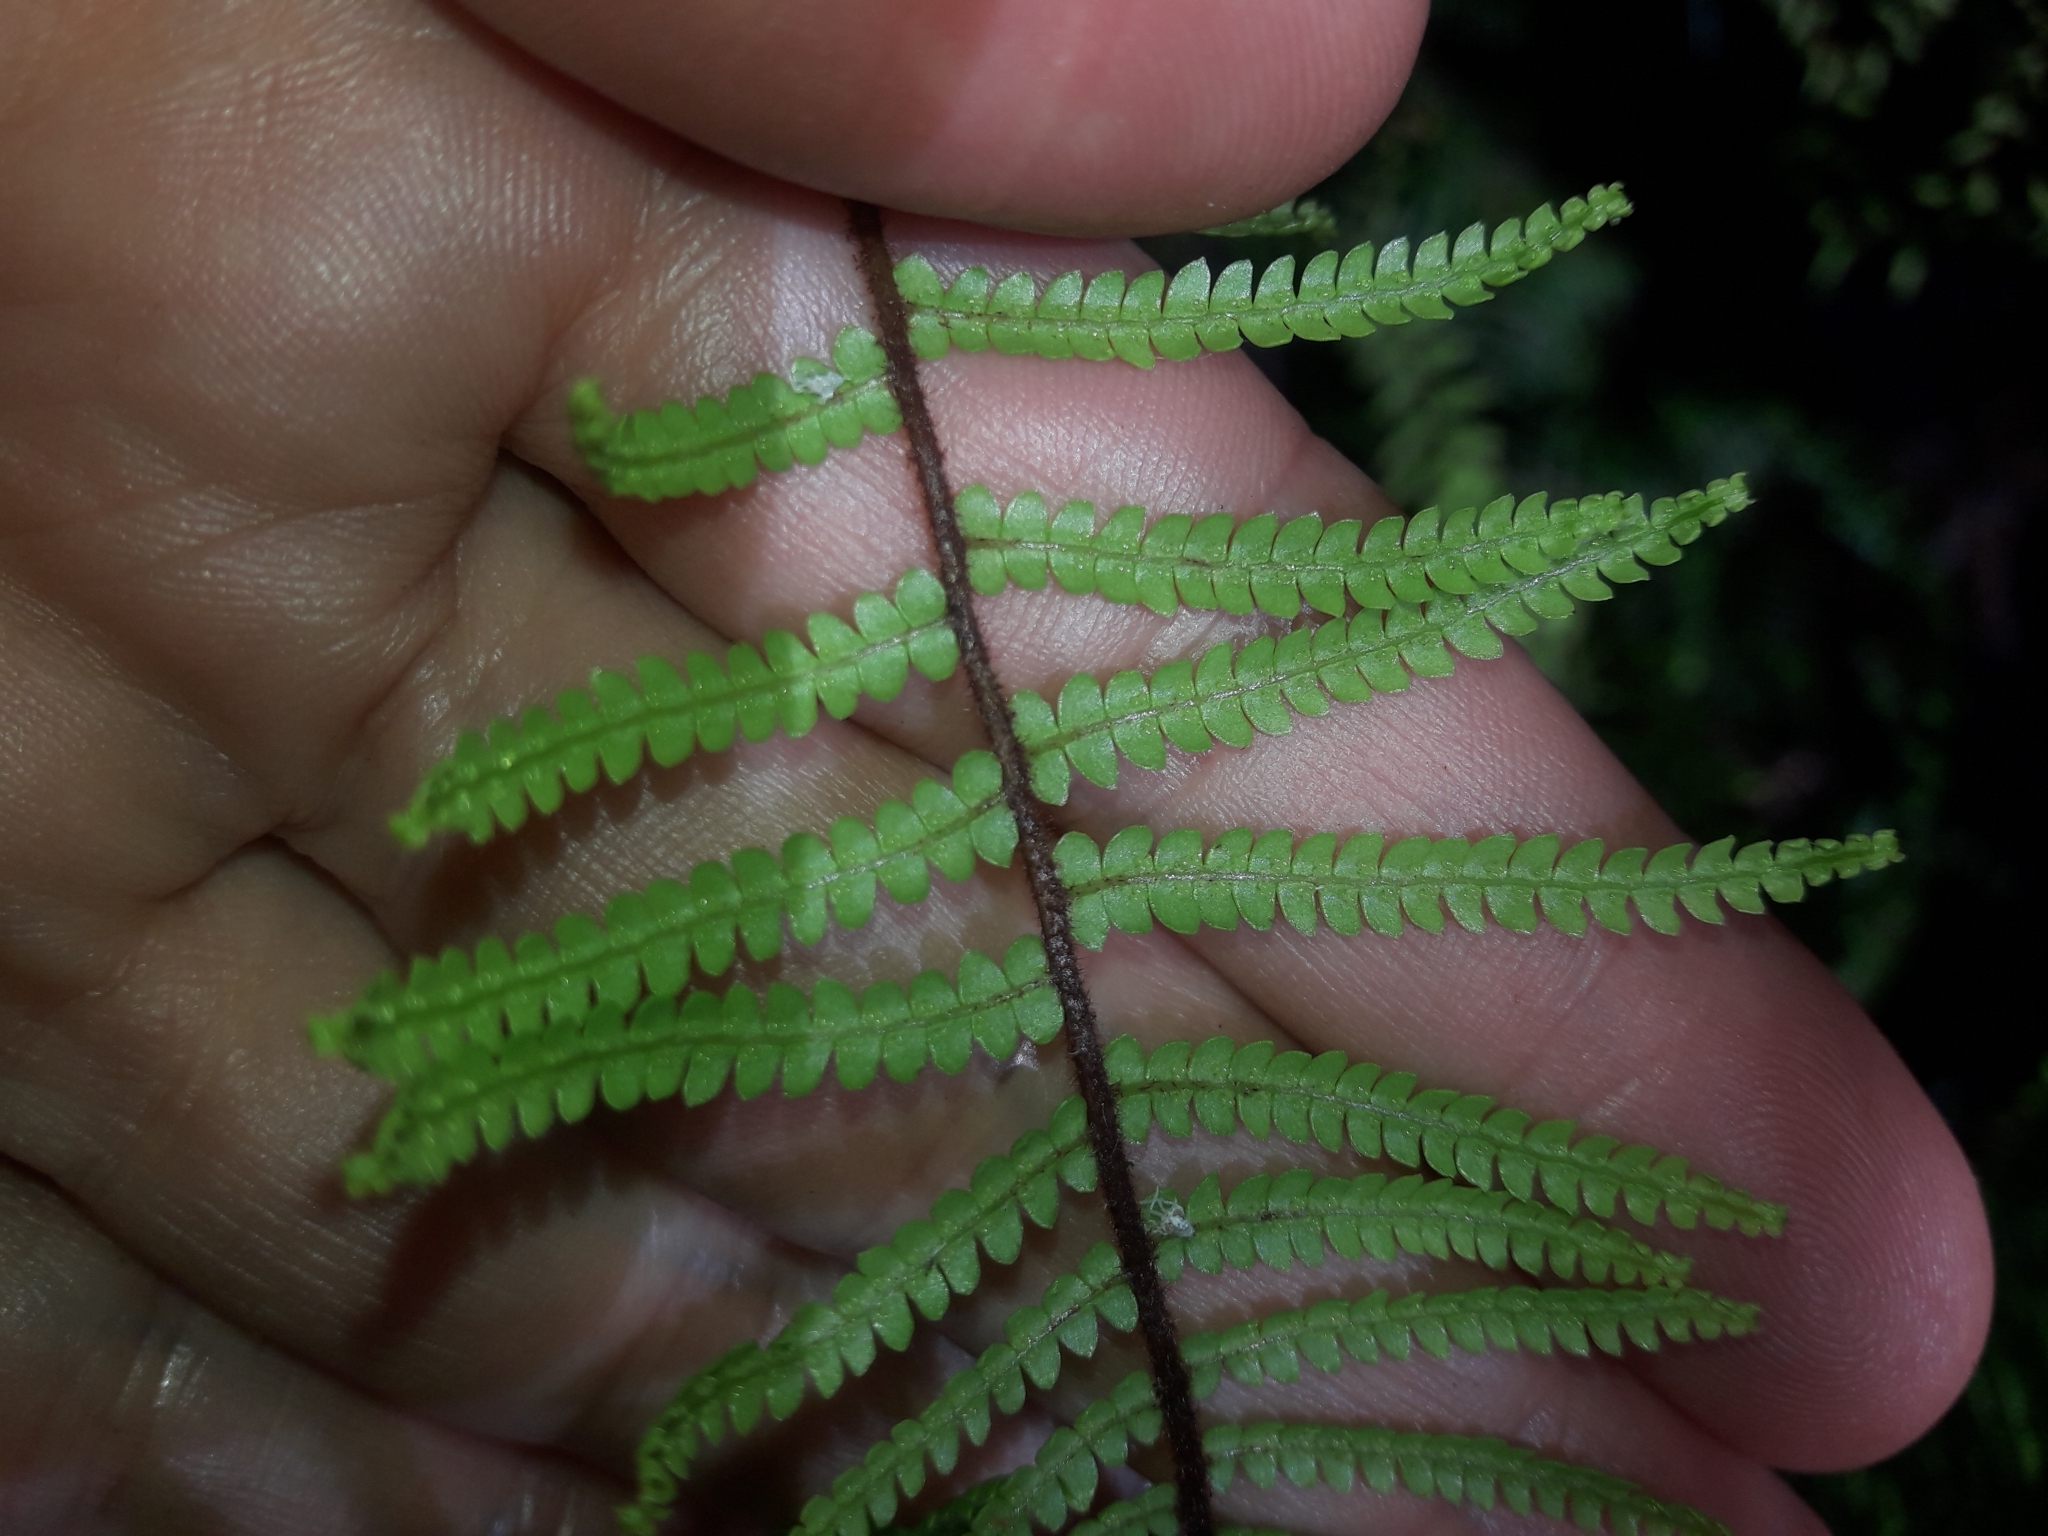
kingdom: Plantae
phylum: Tracheophyta
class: Polypodiopsida
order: Gleicheniales
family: Gleicheniaceae
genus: Gleichenia
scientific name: Gleichenia microphylla
